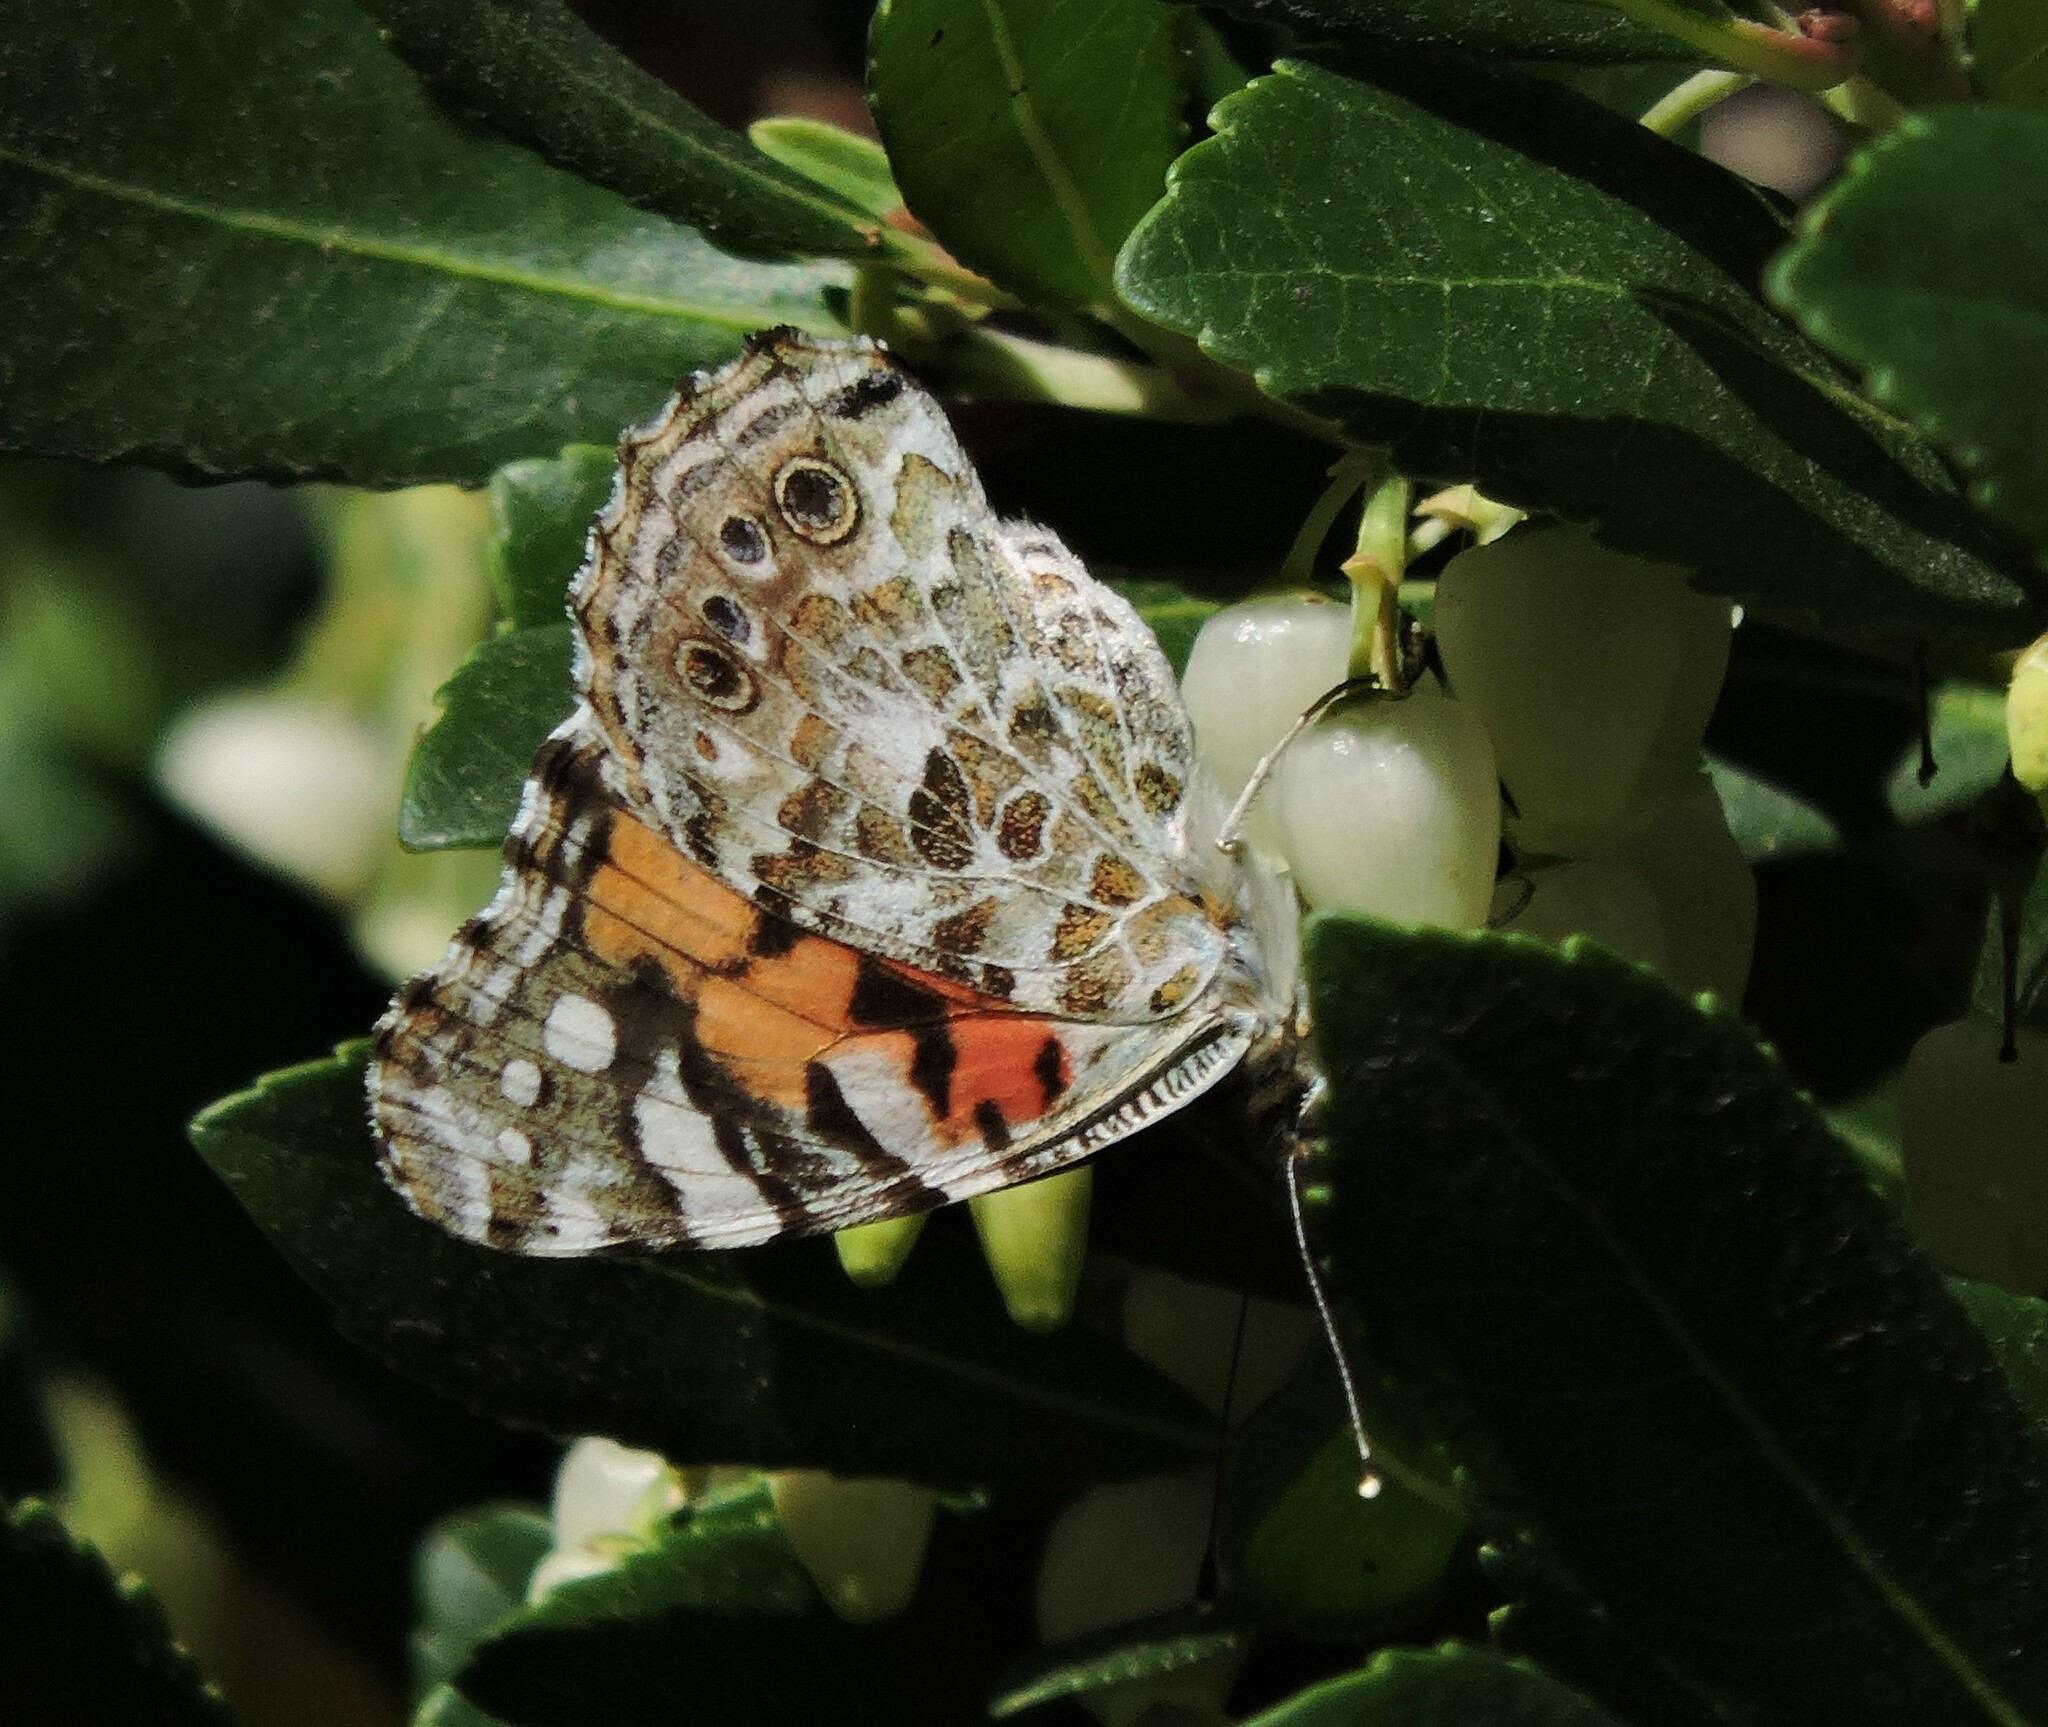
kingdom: Animalia
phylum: Arthropoda
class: Insecta
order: Lepidoptera
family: Nymphalidae
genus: Vanessa
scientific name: Vanessa cardui
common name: Painted lady
